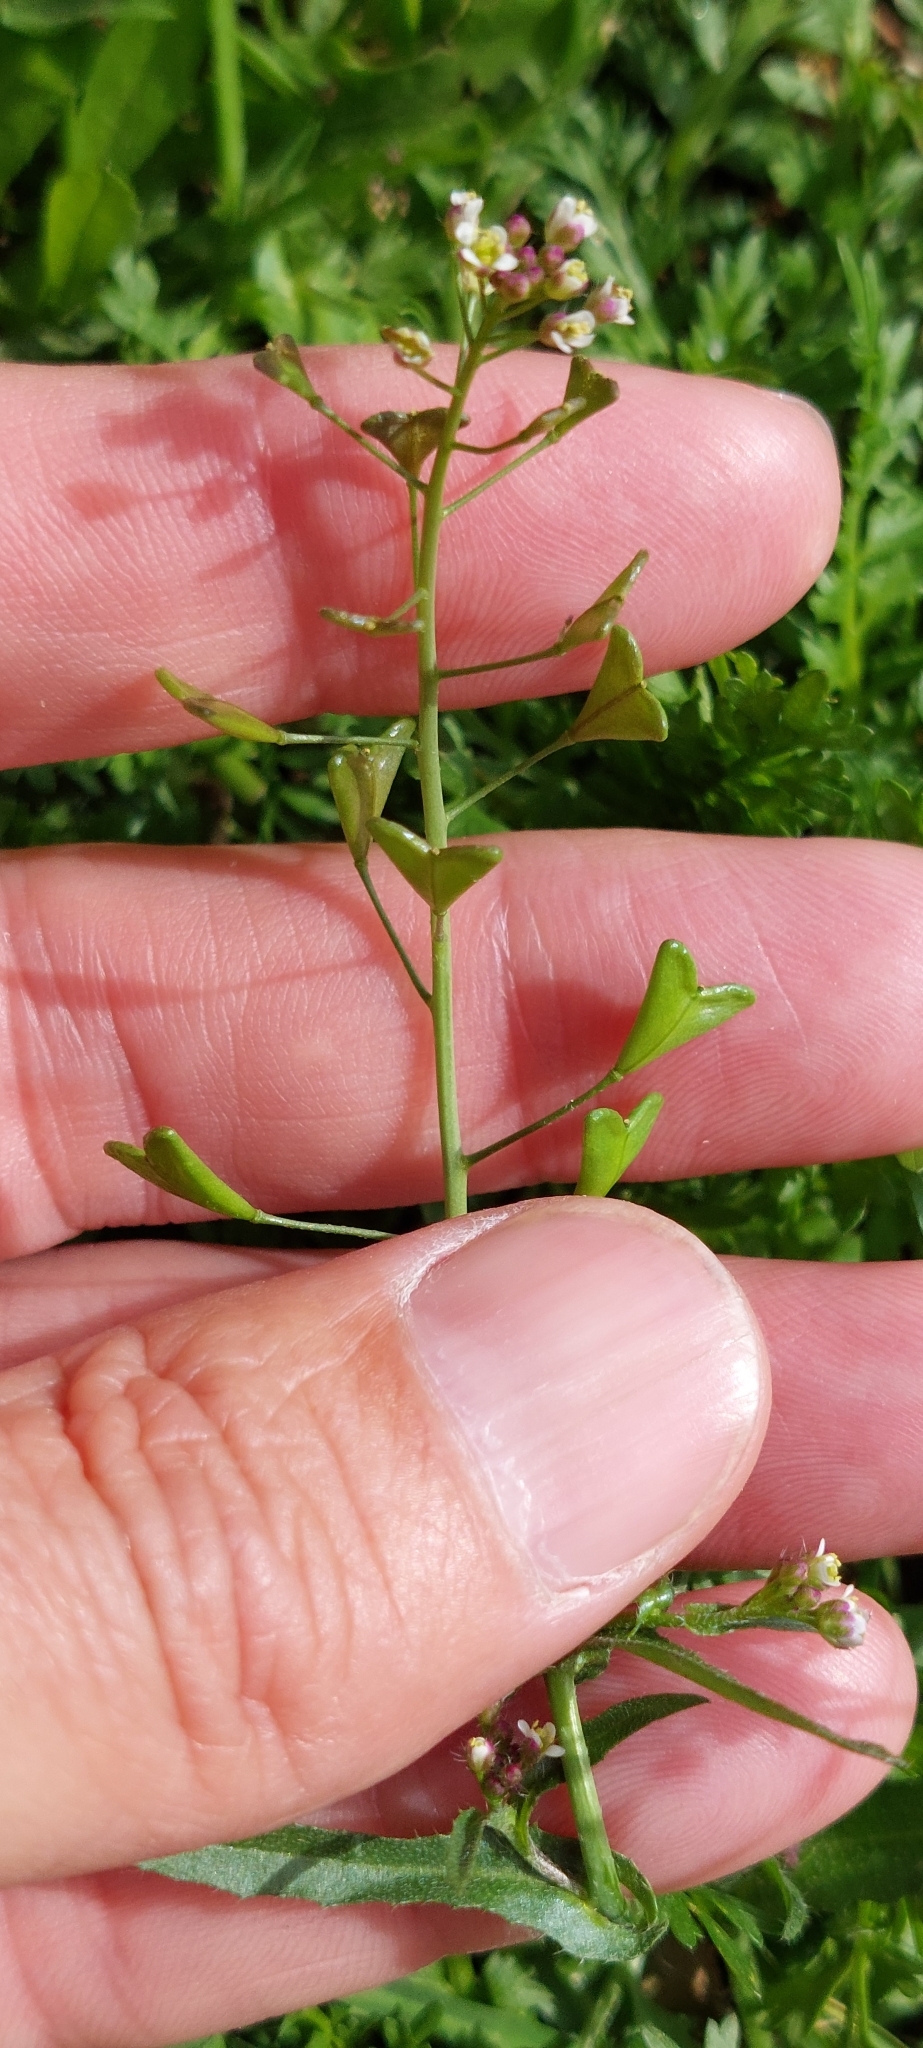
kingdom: Plantae
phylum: Tracheophyta
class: Magnoliopsida
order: Brassicales
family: Brassicaceae
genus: Capsella
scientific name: Capsella bursa-pastoris
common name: Shepherd's purse
